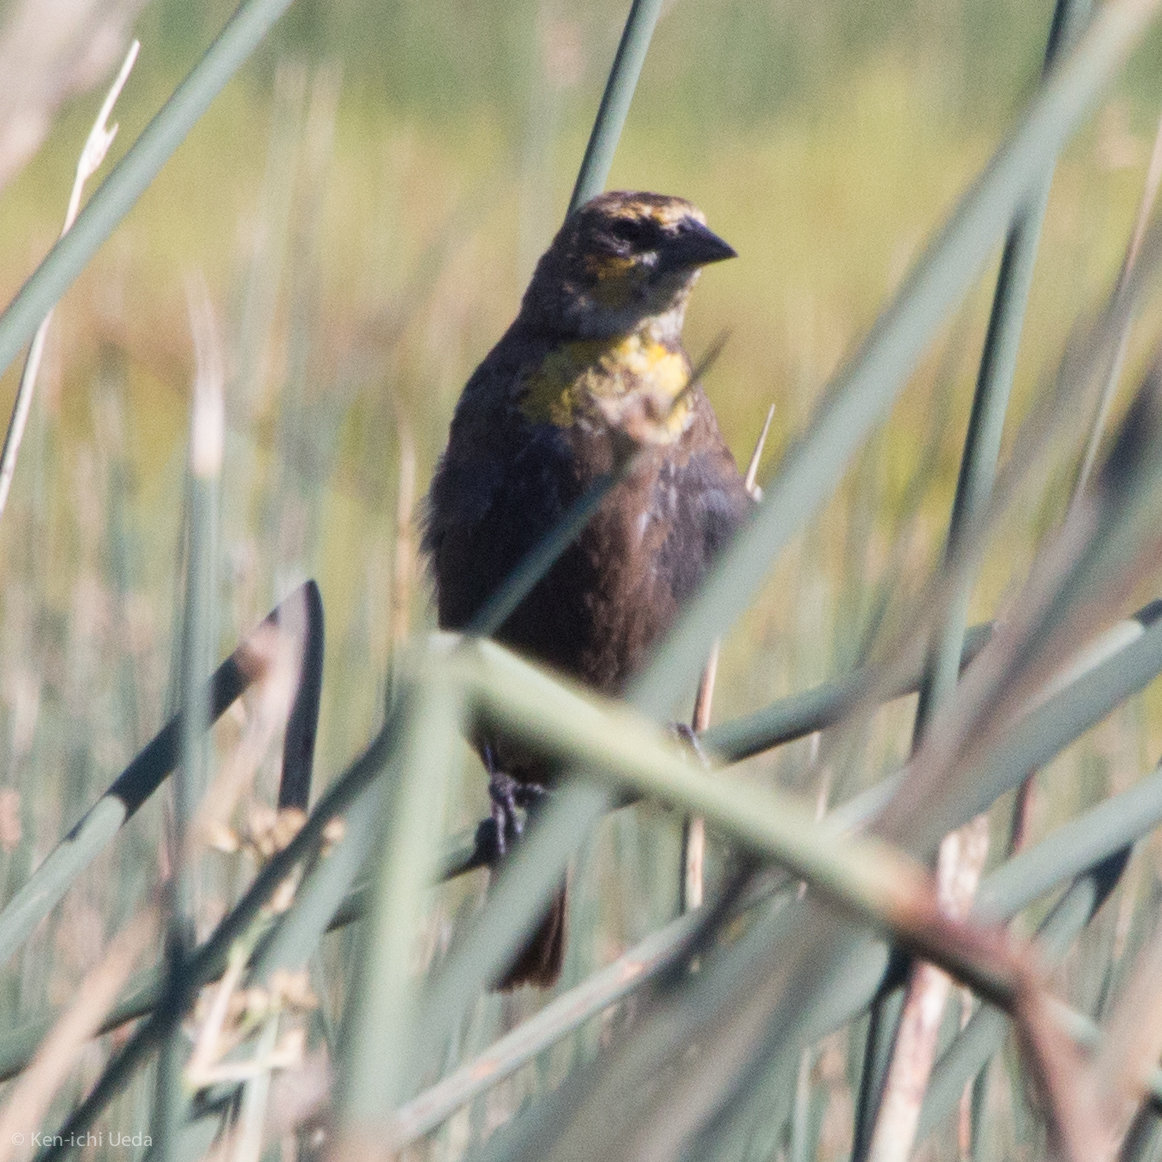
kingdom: Animalia
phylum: Chordata
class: Aves
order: Passeriformes
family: Icteridae
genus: Xanthocephalus
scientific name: Xanthocephalus xanthocephalus
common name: Yellow-headed blackbird
